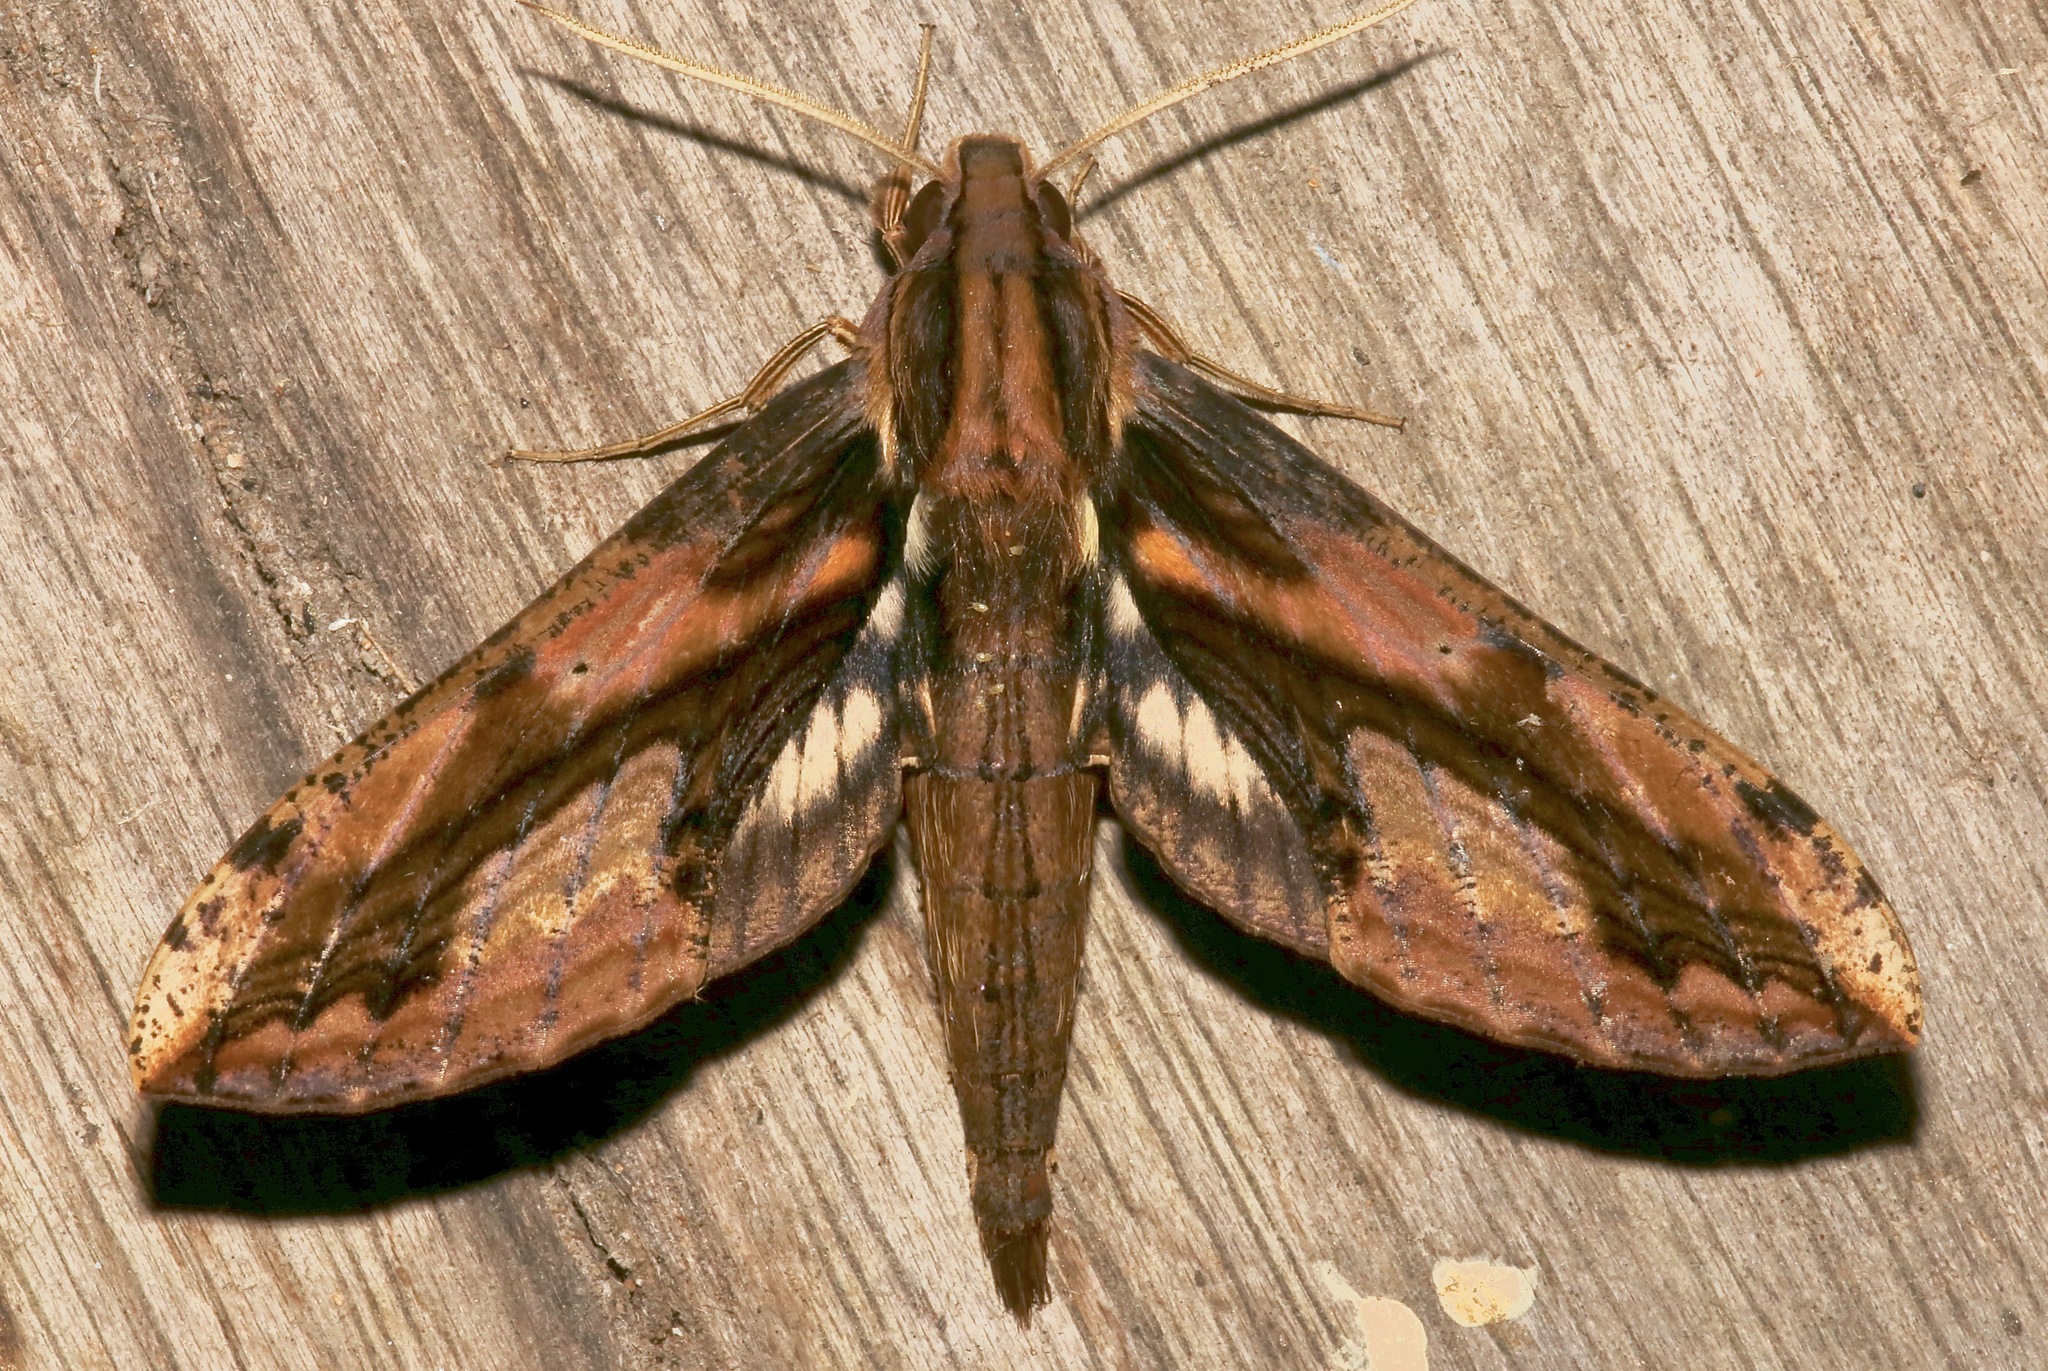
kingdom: Animalia
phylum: Arthropoda
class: Insecta
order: Lepidoptera
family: Sphingidae
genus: Xylophanes
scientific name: Xylophanes ceratomioides
